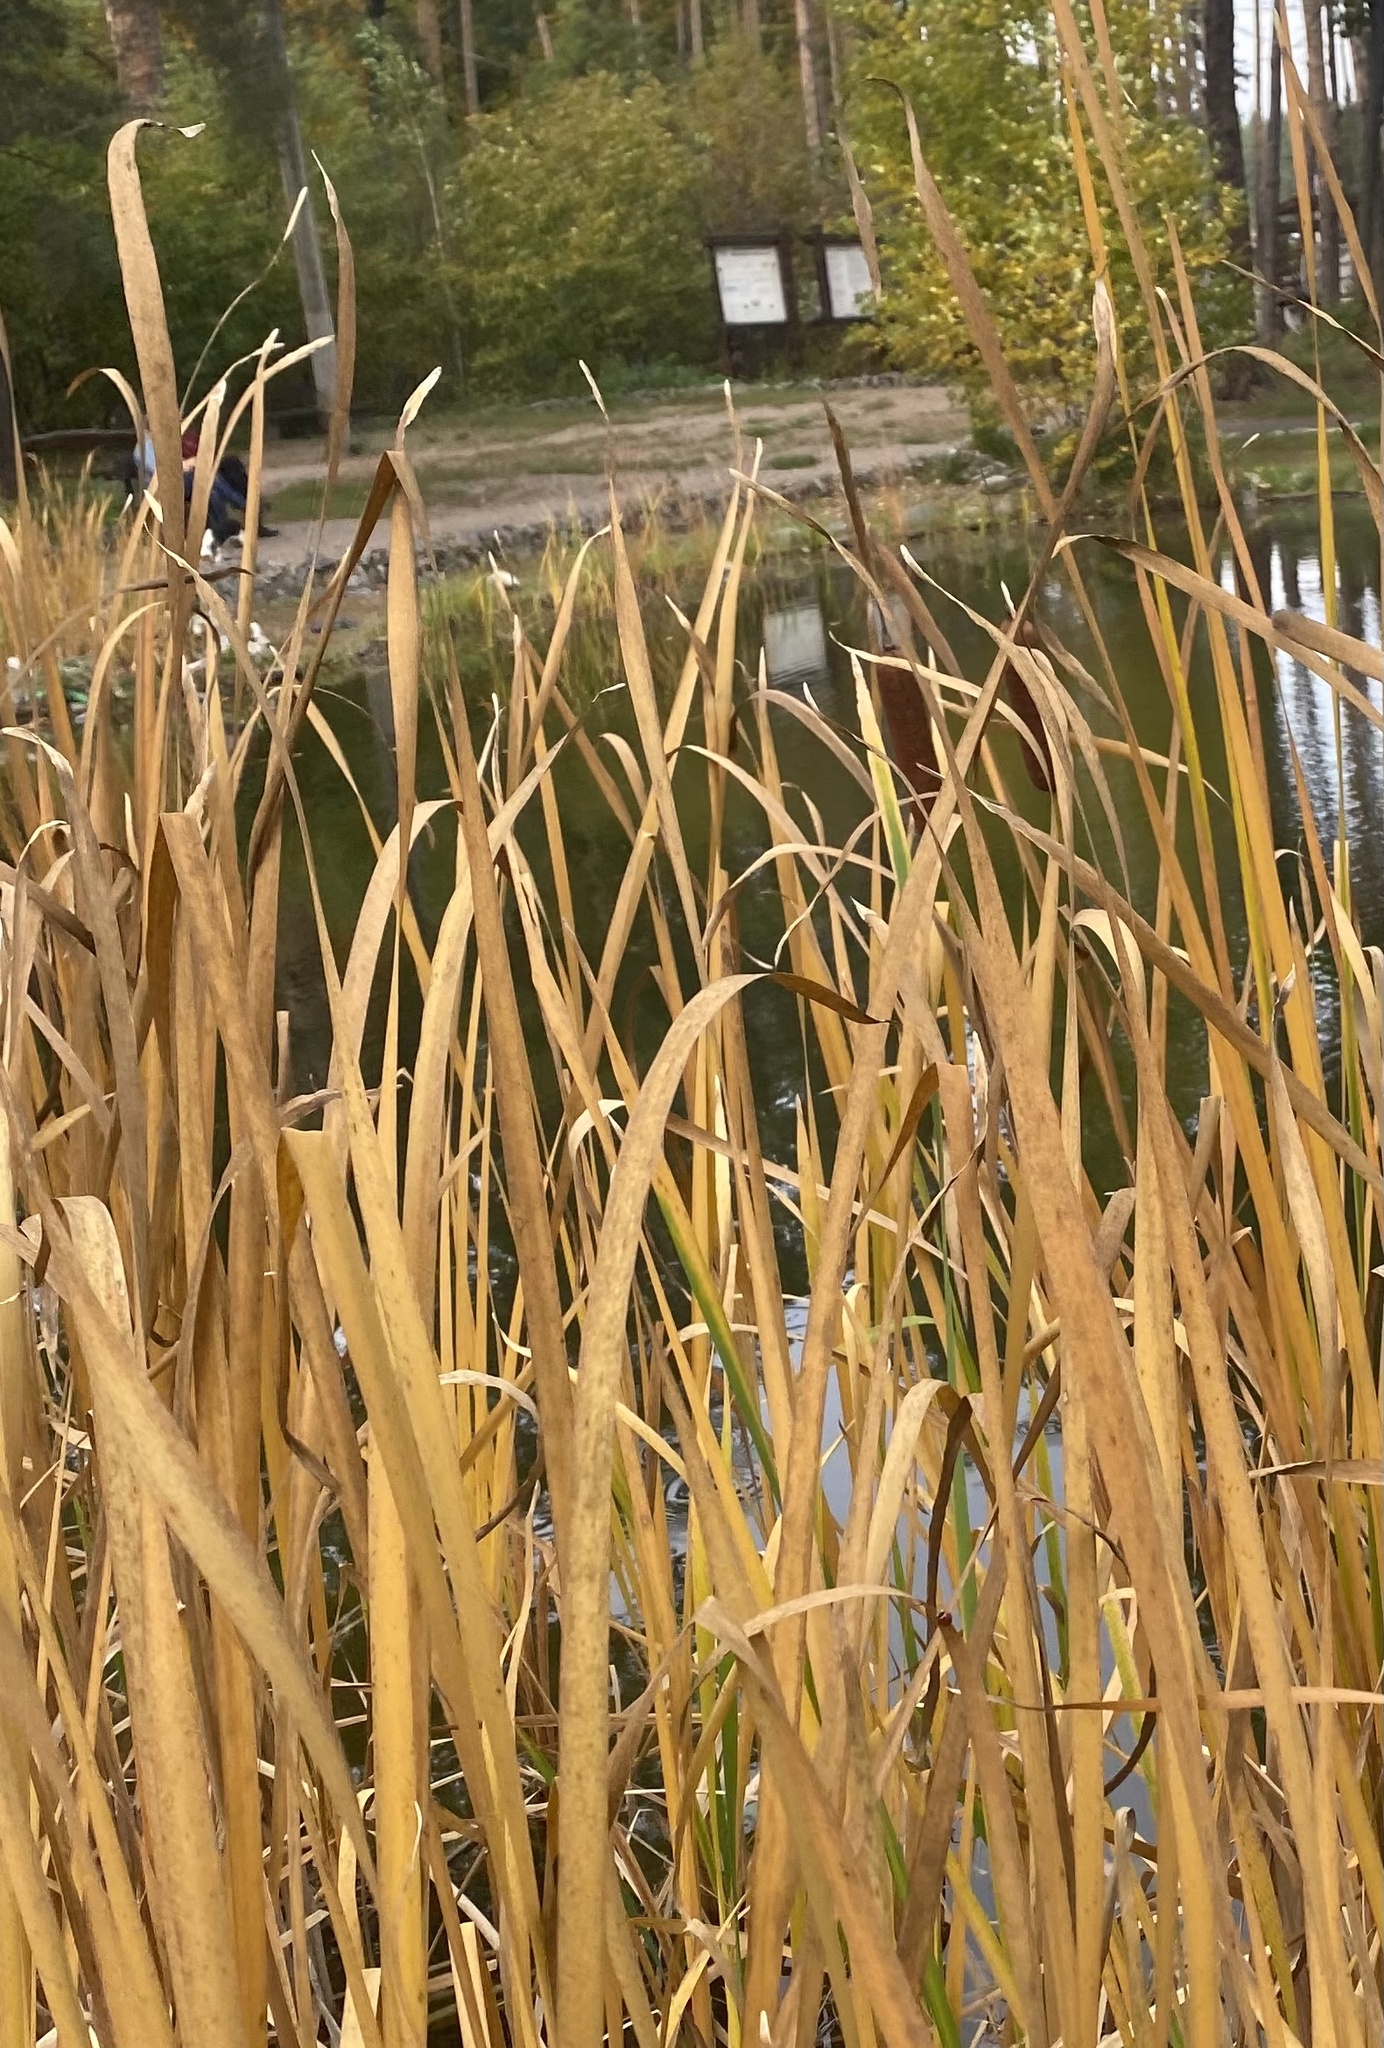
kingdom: Plantae
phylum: Tracheophyta
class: Liliopsida
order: Poales
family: Typhaceae
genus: Typha
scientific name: Typha latifolia
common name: Broadleaf cattail
